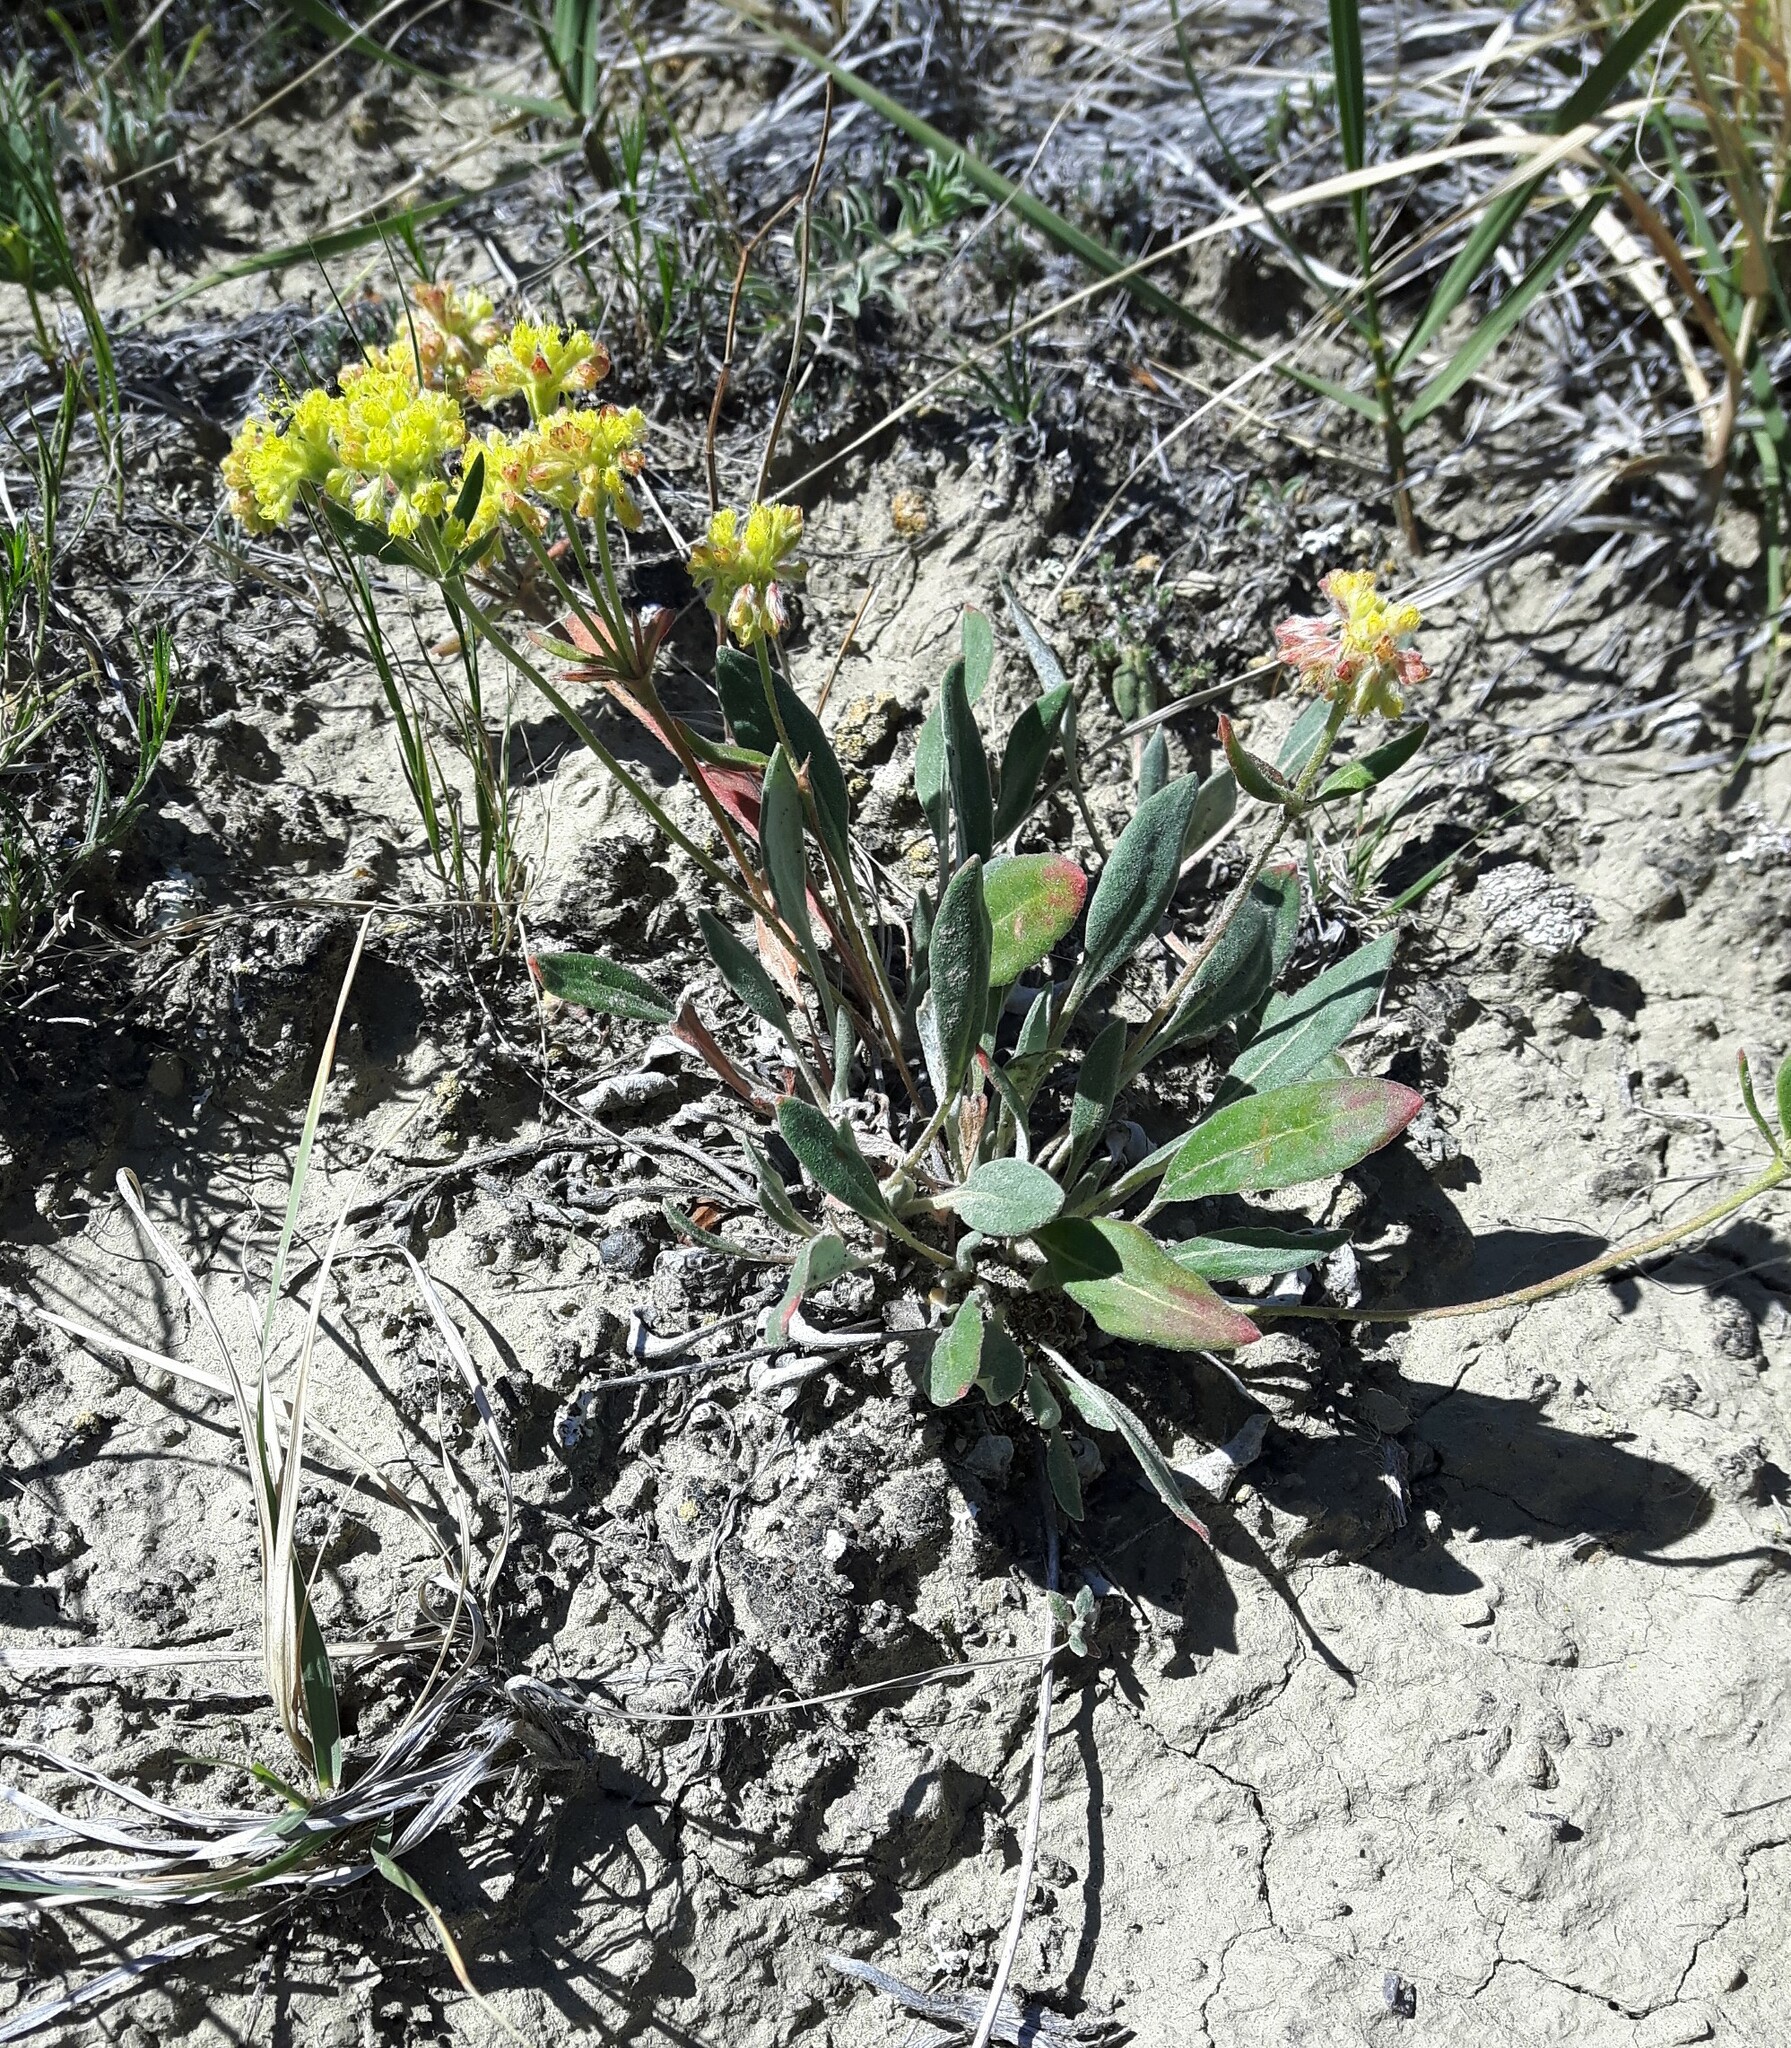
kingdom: Plantae
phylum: Tracheophyta
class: Magnoliopsida
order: Caryophyllales
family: Polygonaceae
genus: Eriogonum
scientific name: Eriogonum flavum
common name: Alpine golden wild buckwheat
